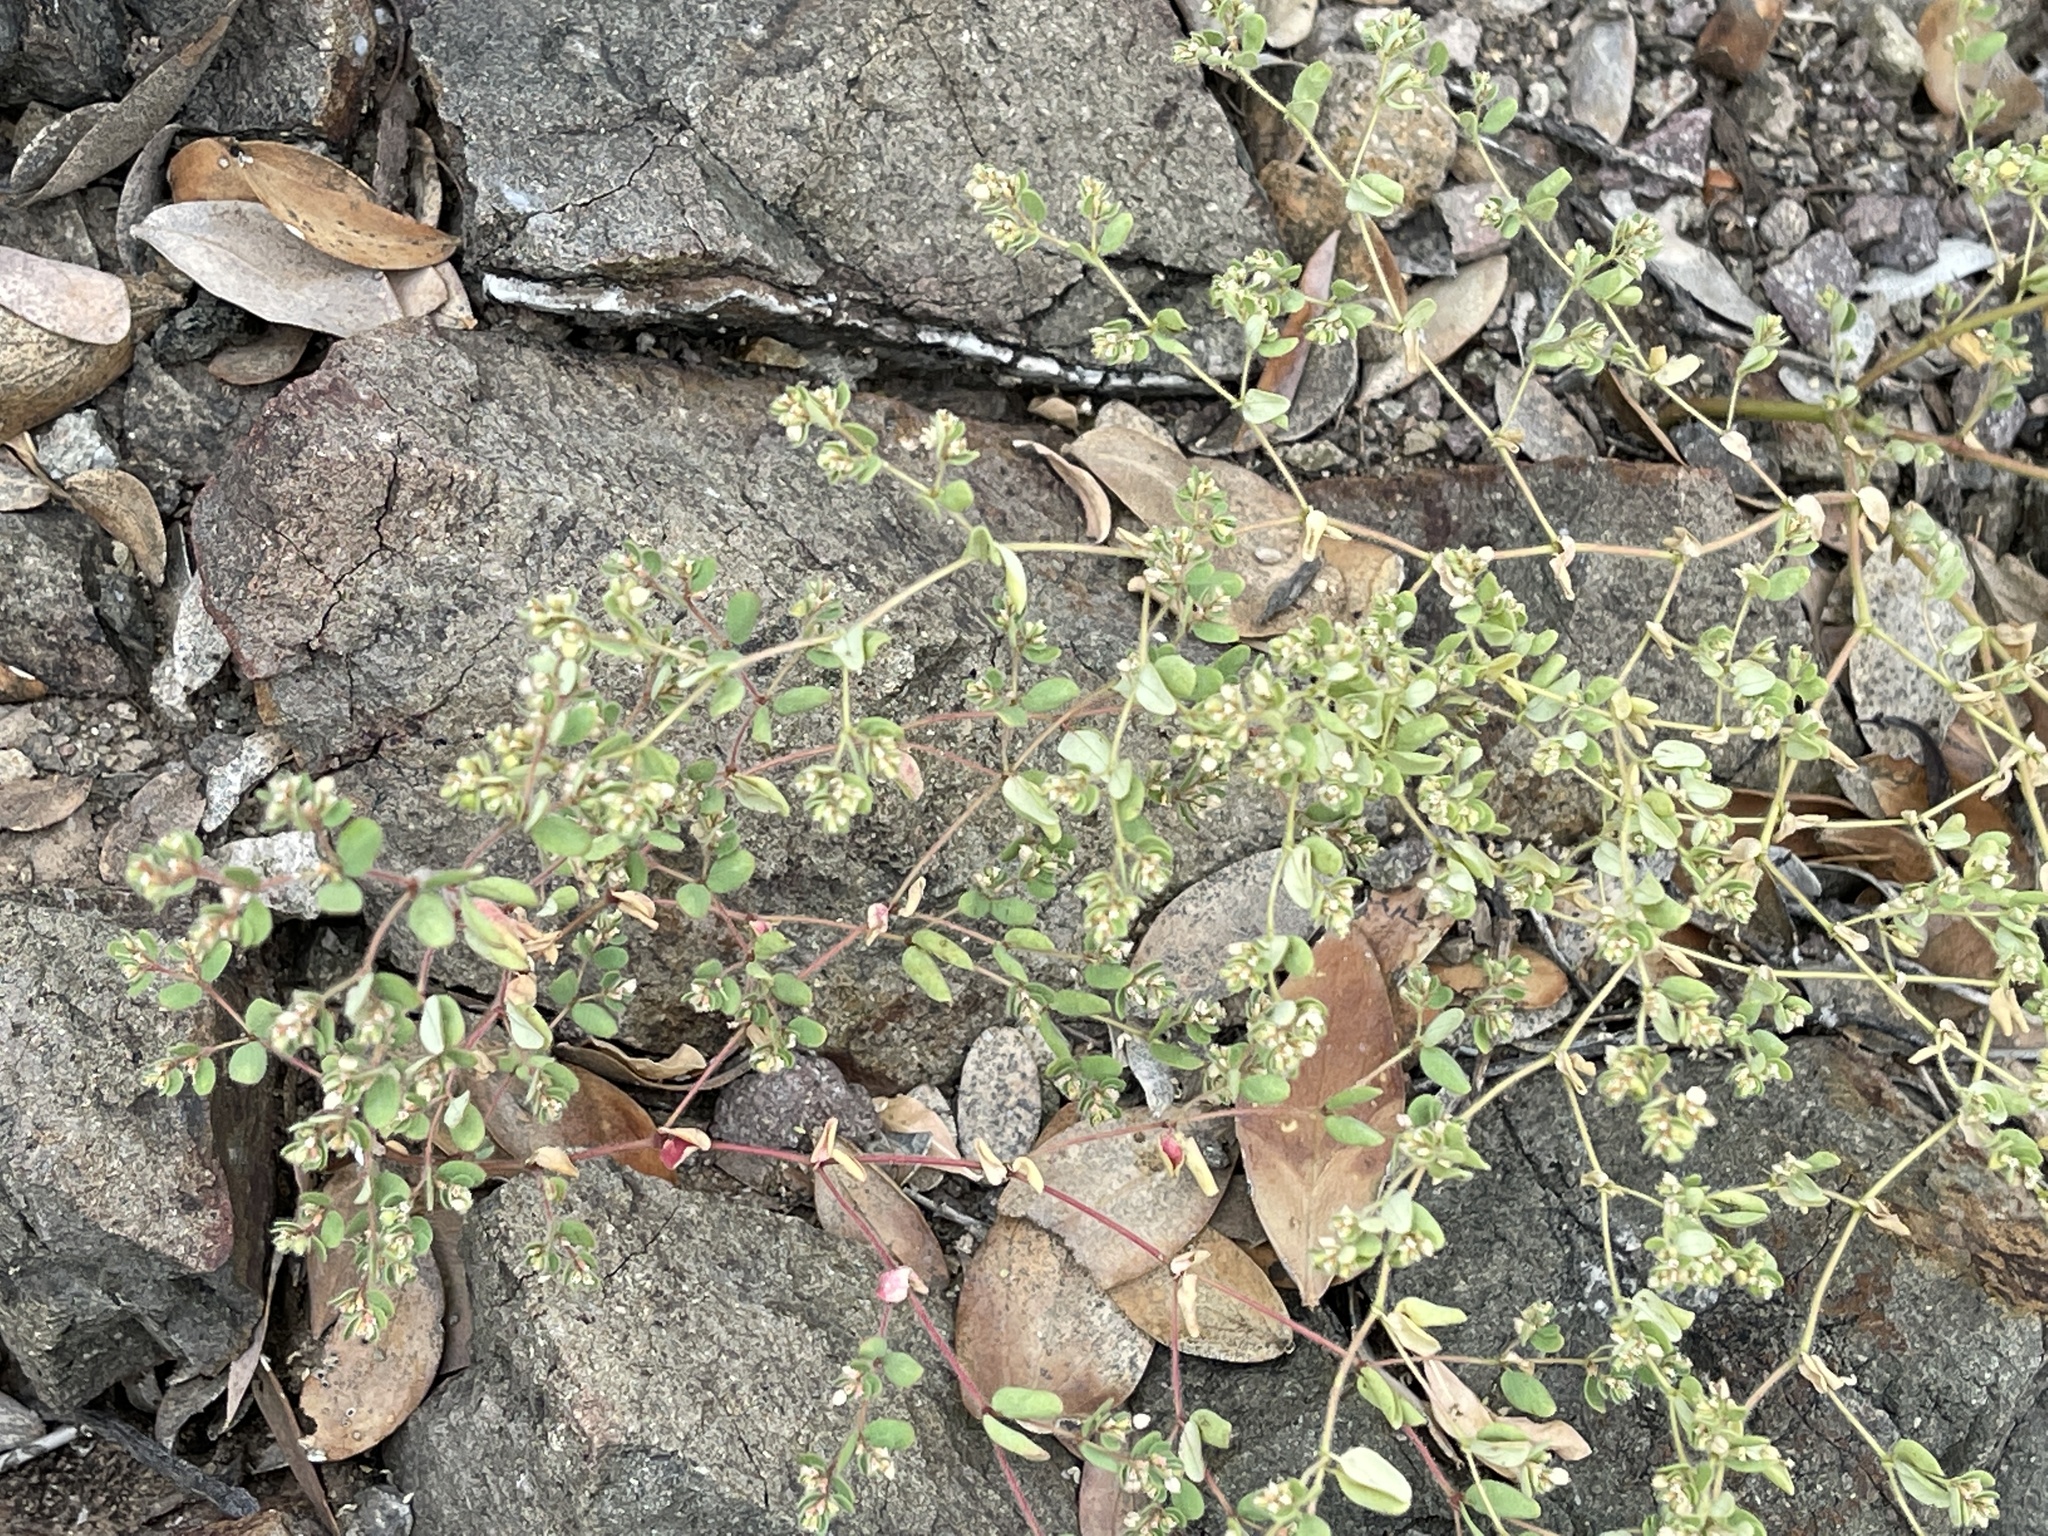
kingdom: Plantae
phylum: Tracheophyta
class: Magnoliopsida
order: Malpighiales
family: Euphorbiaceae
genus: Euphorbia
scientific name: Euphorbia setiloba
